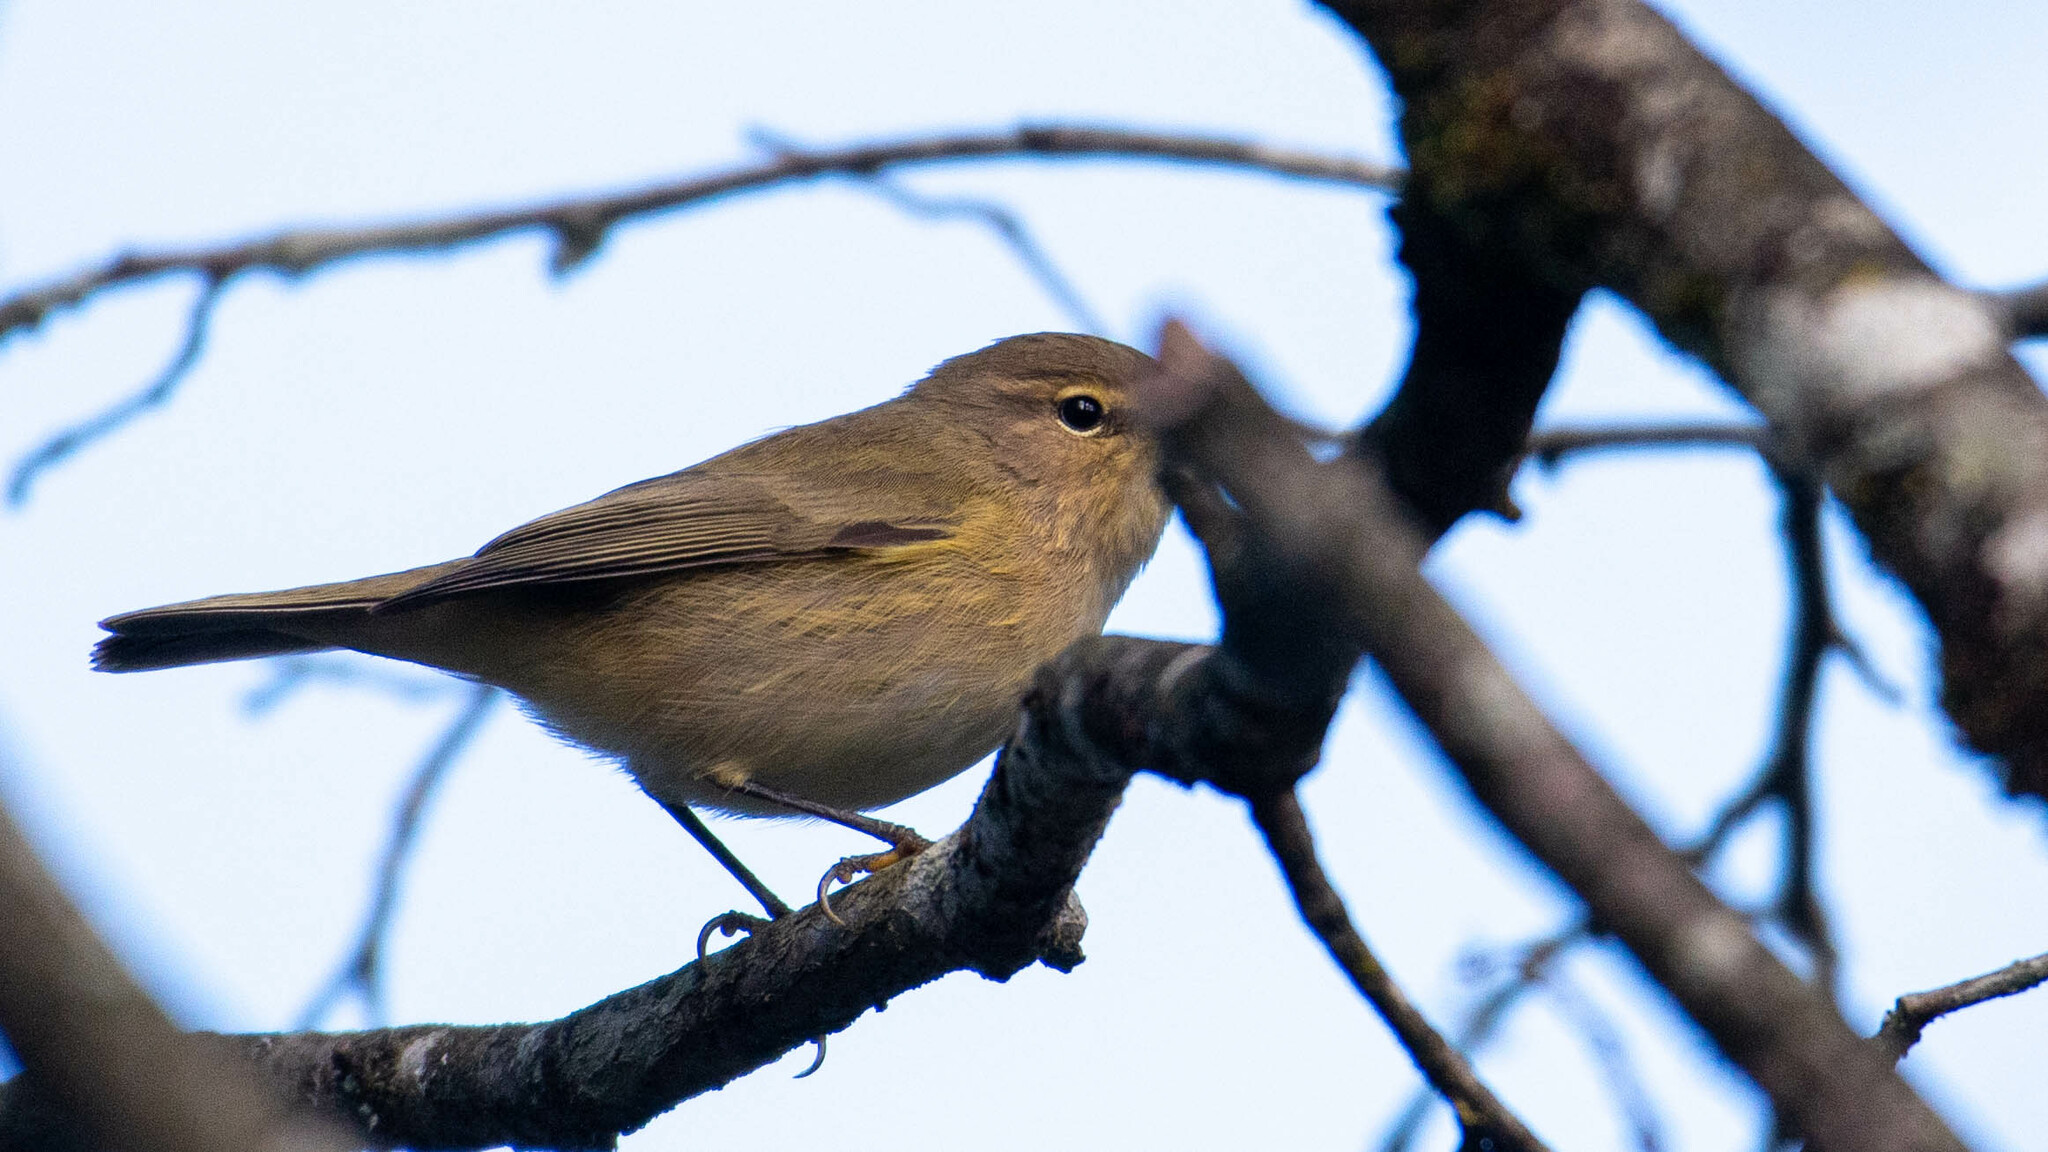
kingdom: Animalia
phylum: Chordata
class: Aves
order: Passeriformes
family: Phylloscopidae
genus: Phylloscopus
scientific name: Phylloscopus collybita
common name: Common chiffchaff
